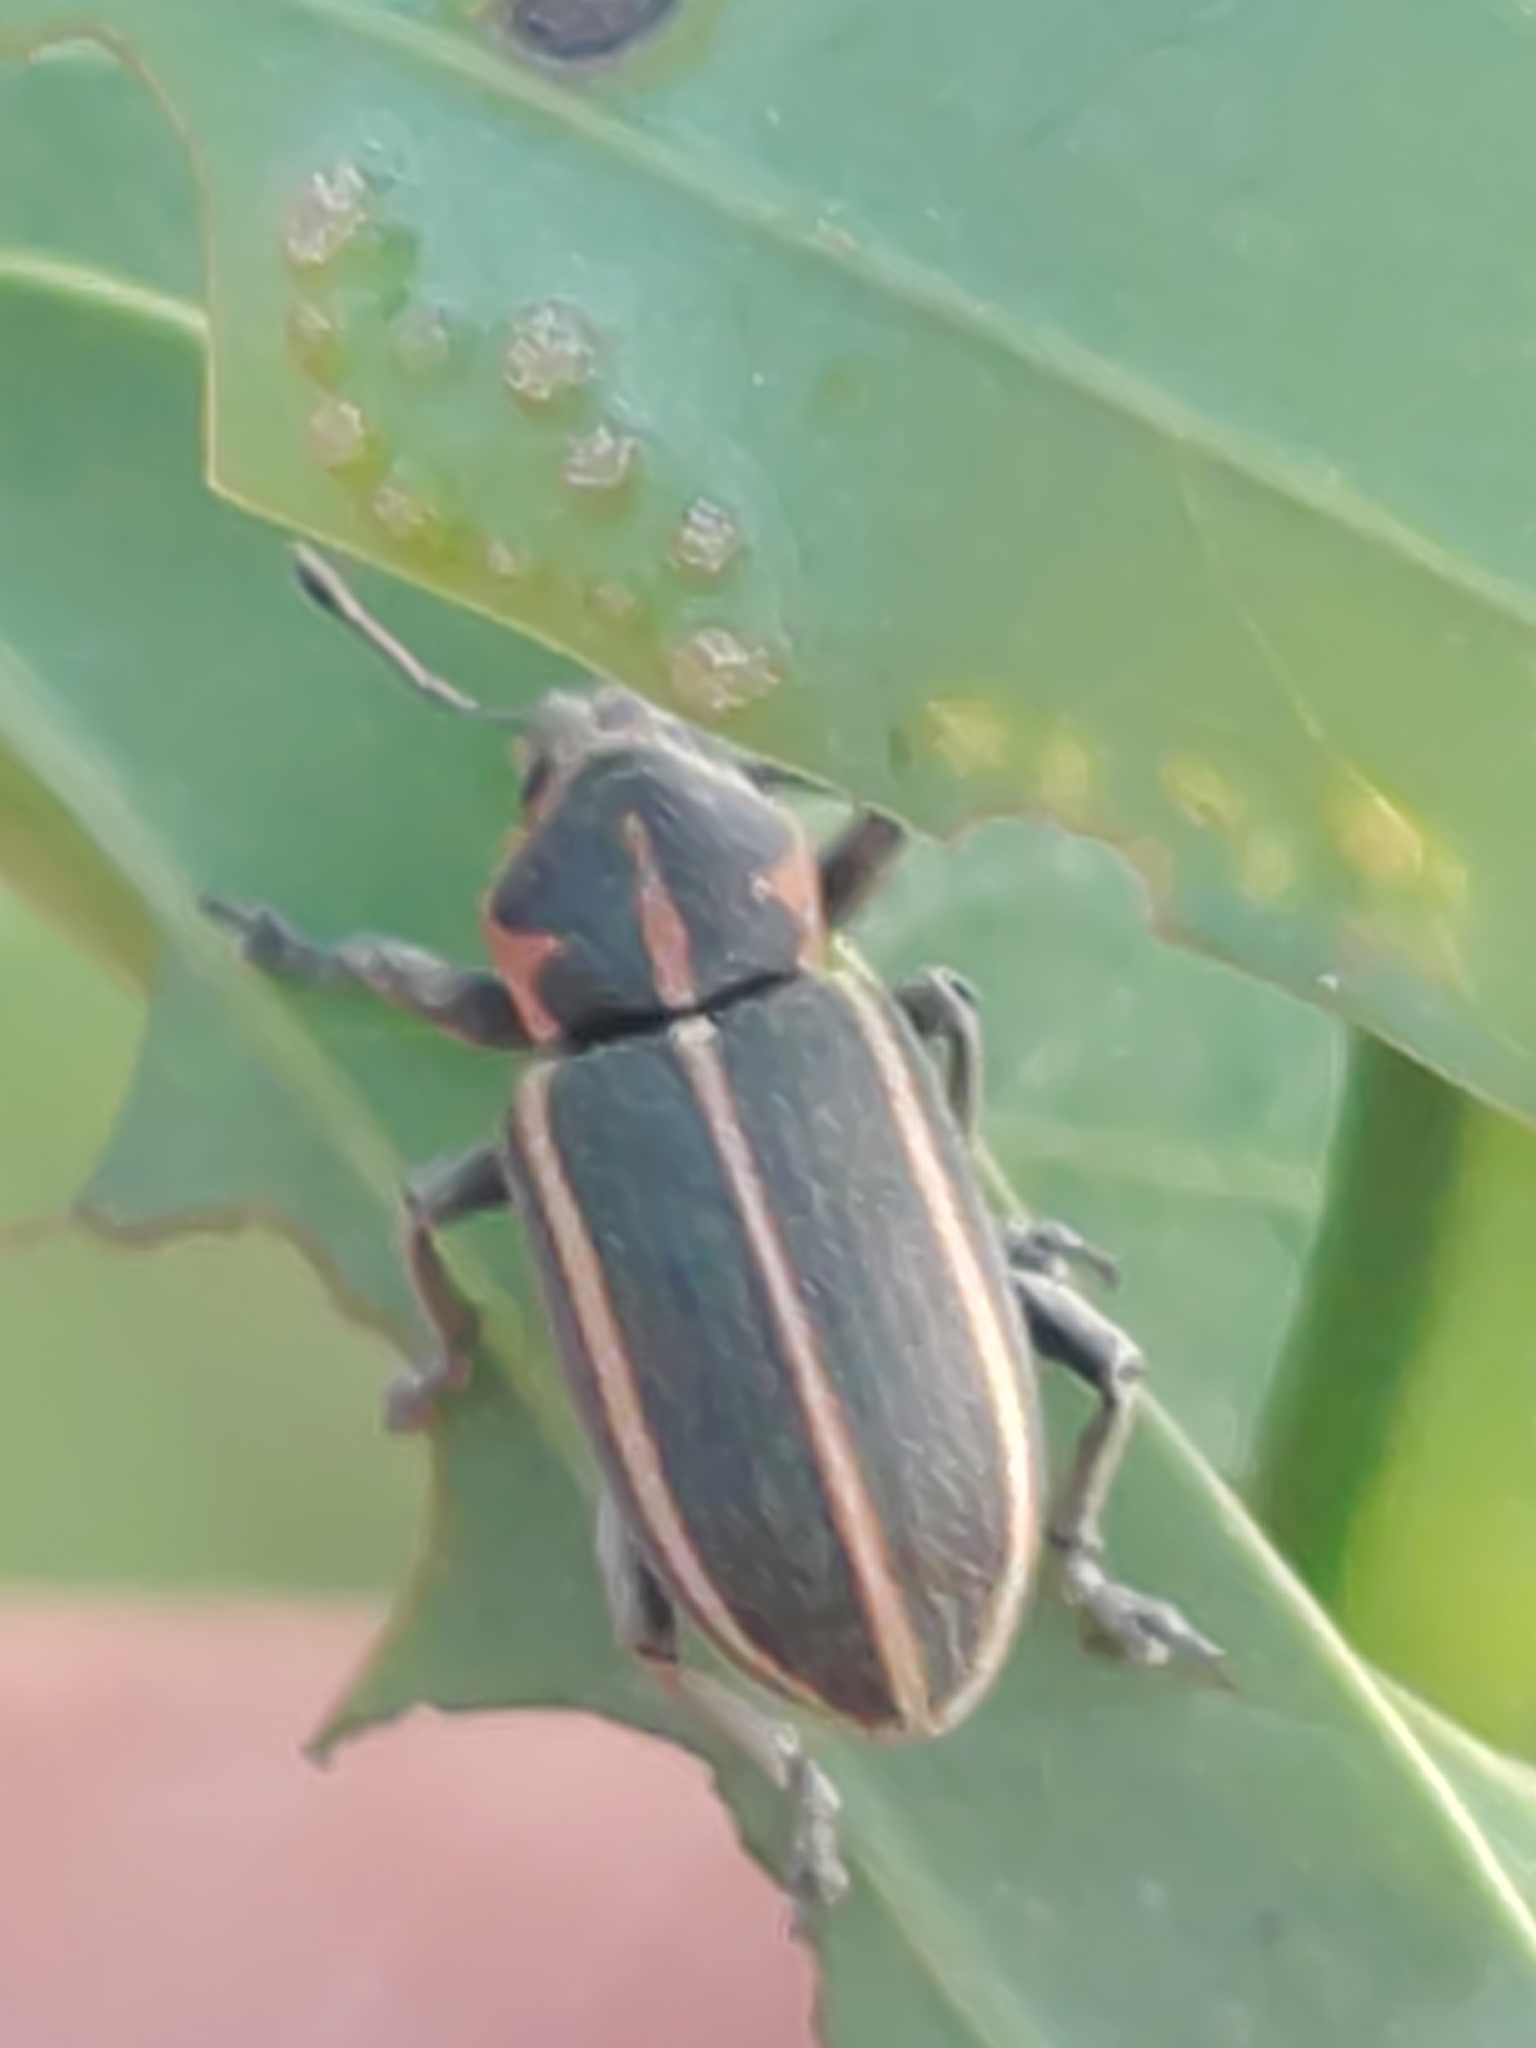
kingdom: Animalia
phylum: Arthropoda
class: Insecta
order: Coleoptera
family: Curculionidae
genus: Eudiagogus
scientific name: Eudiagogus maryae
